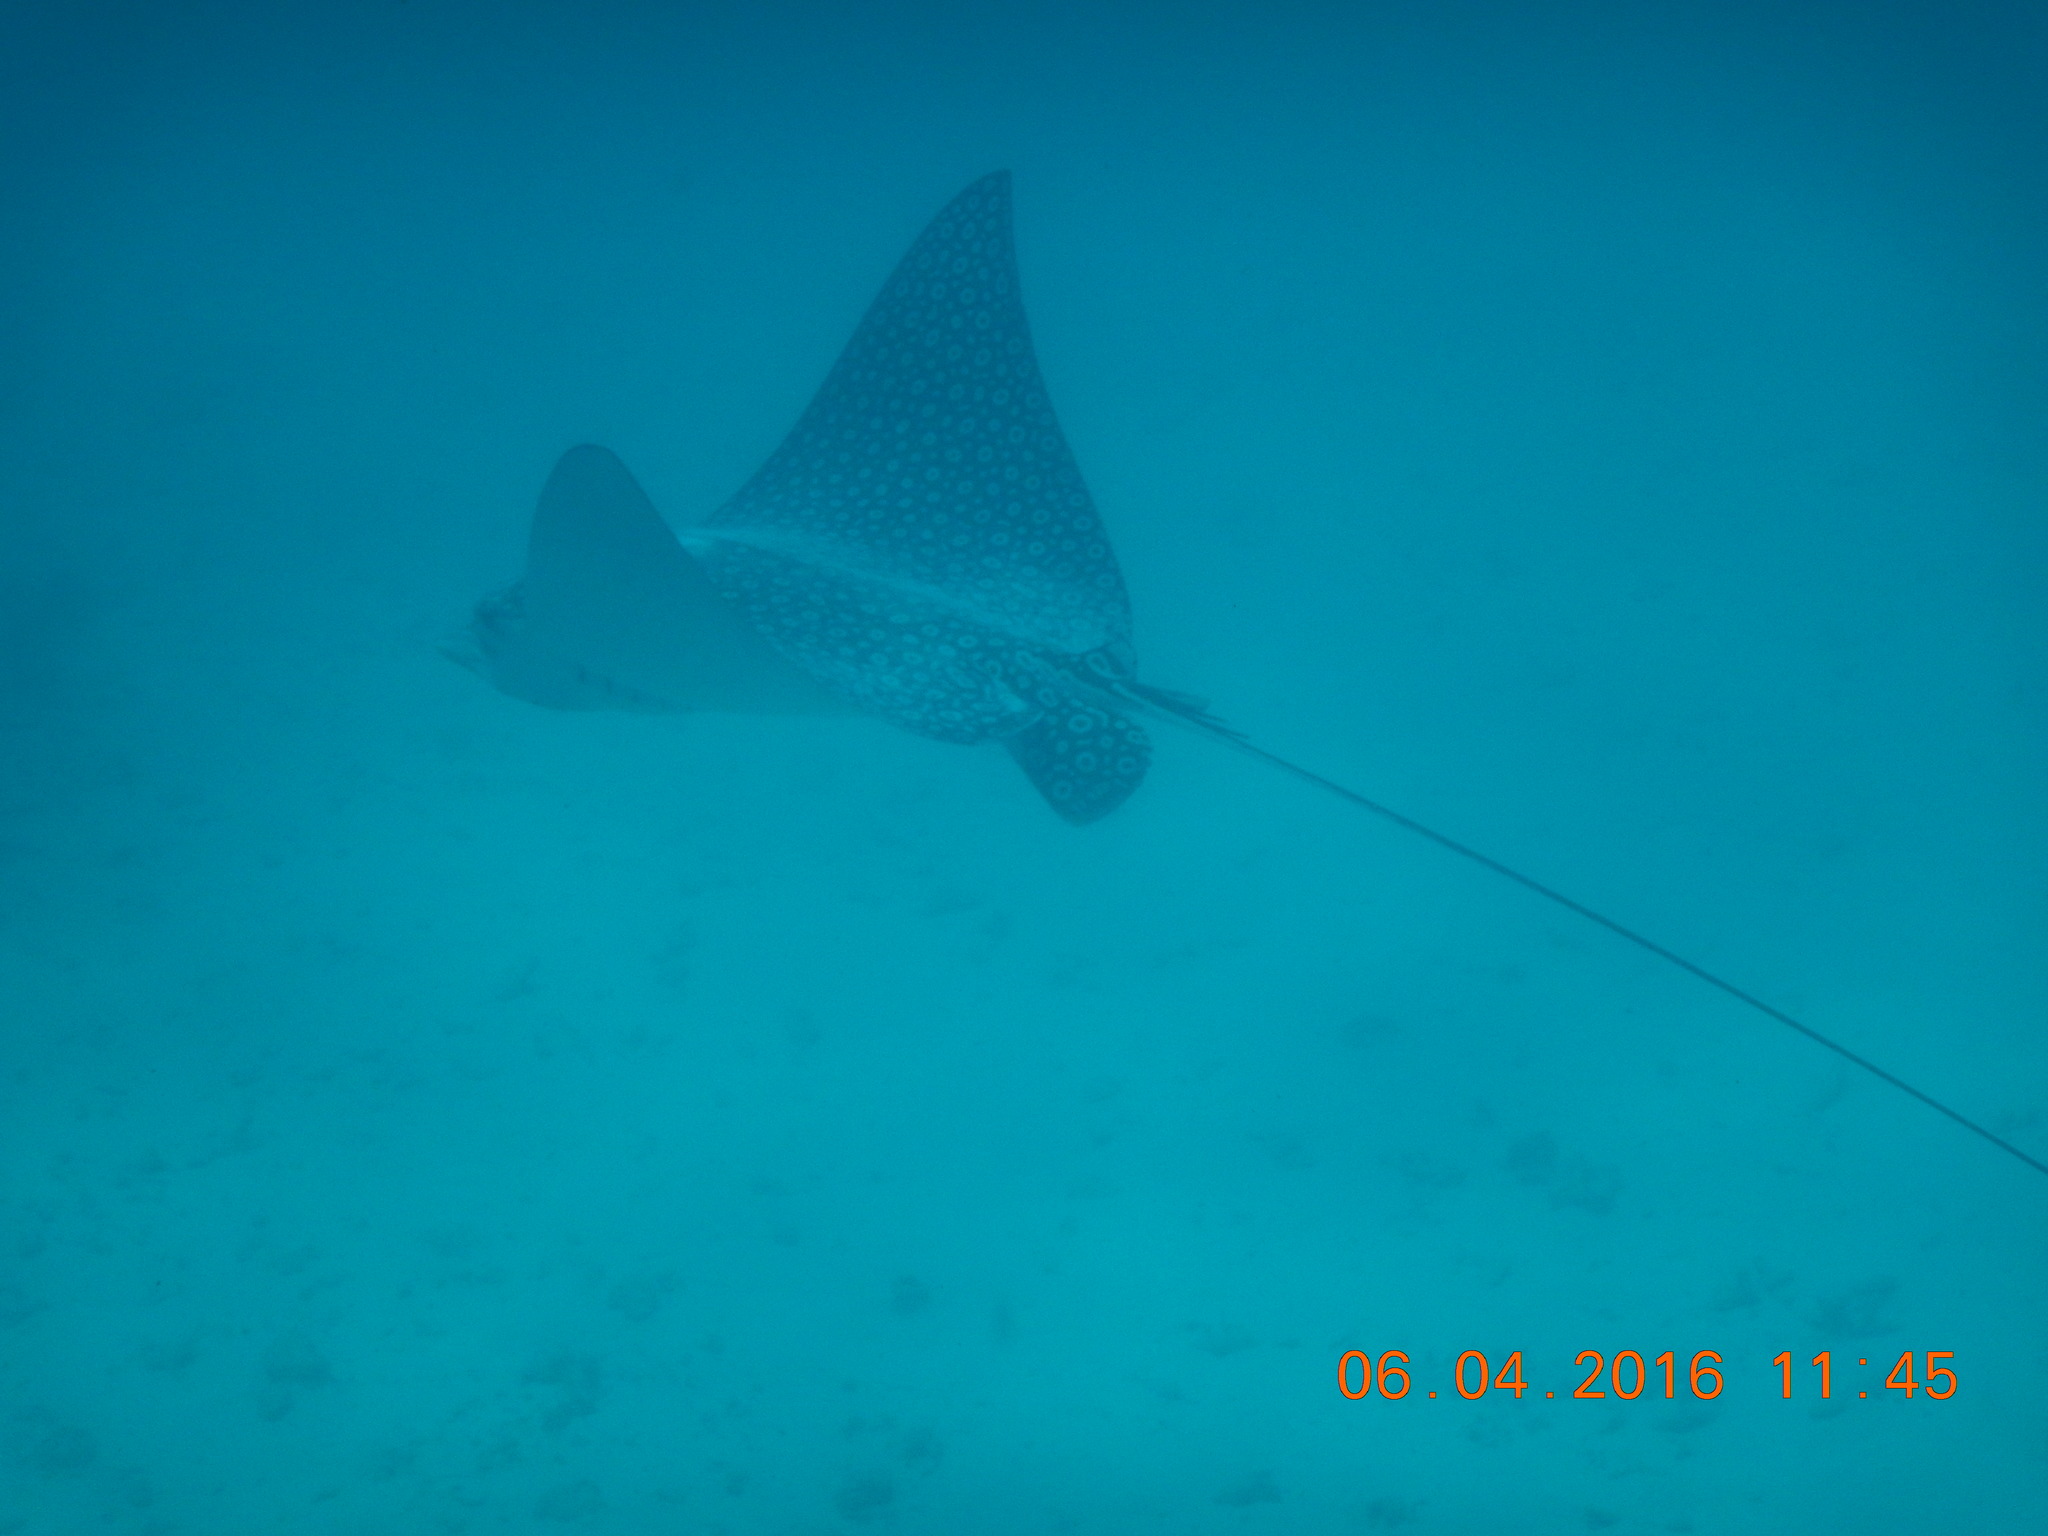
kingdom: Animalia
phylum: Chordata
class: Elasmobranchii
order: Myliobatiformes
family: Myliobatidae
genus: Aetobatus
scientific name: Aetobatus narinari
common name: Spotted eagle ray
